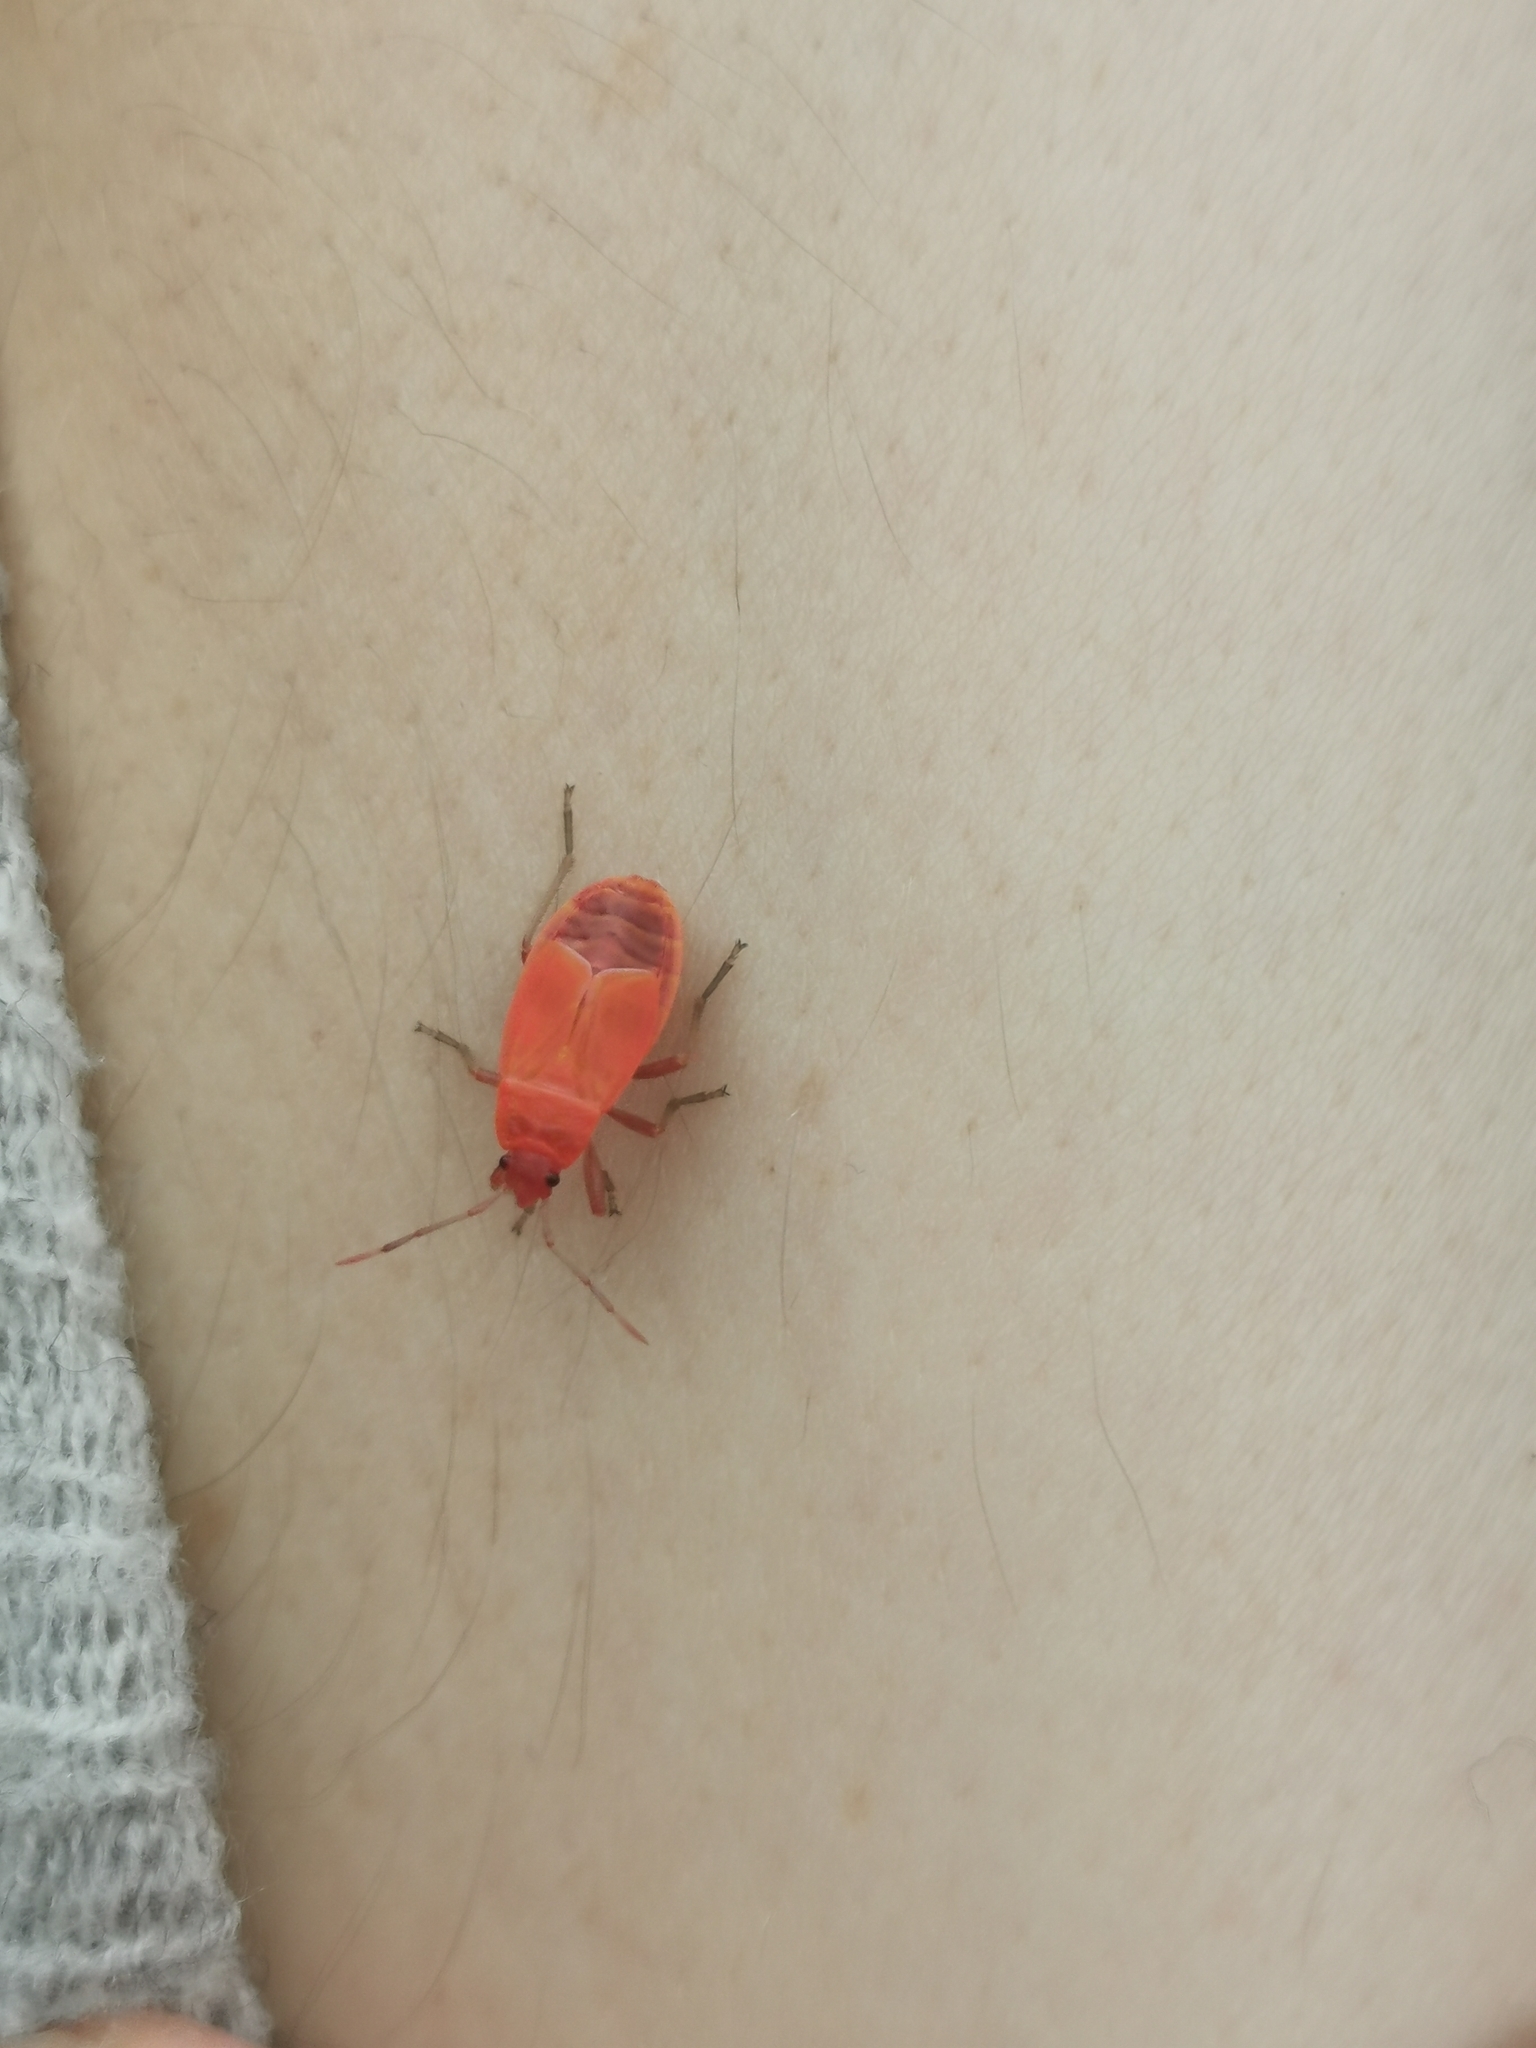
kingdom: Animalia
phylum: Arthropoda
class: Insecta
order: Hemiptera
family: Pyrrhocoridae
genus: Pyrrhocoris
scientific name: Pyrrhocoris apterus
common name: Firebug
